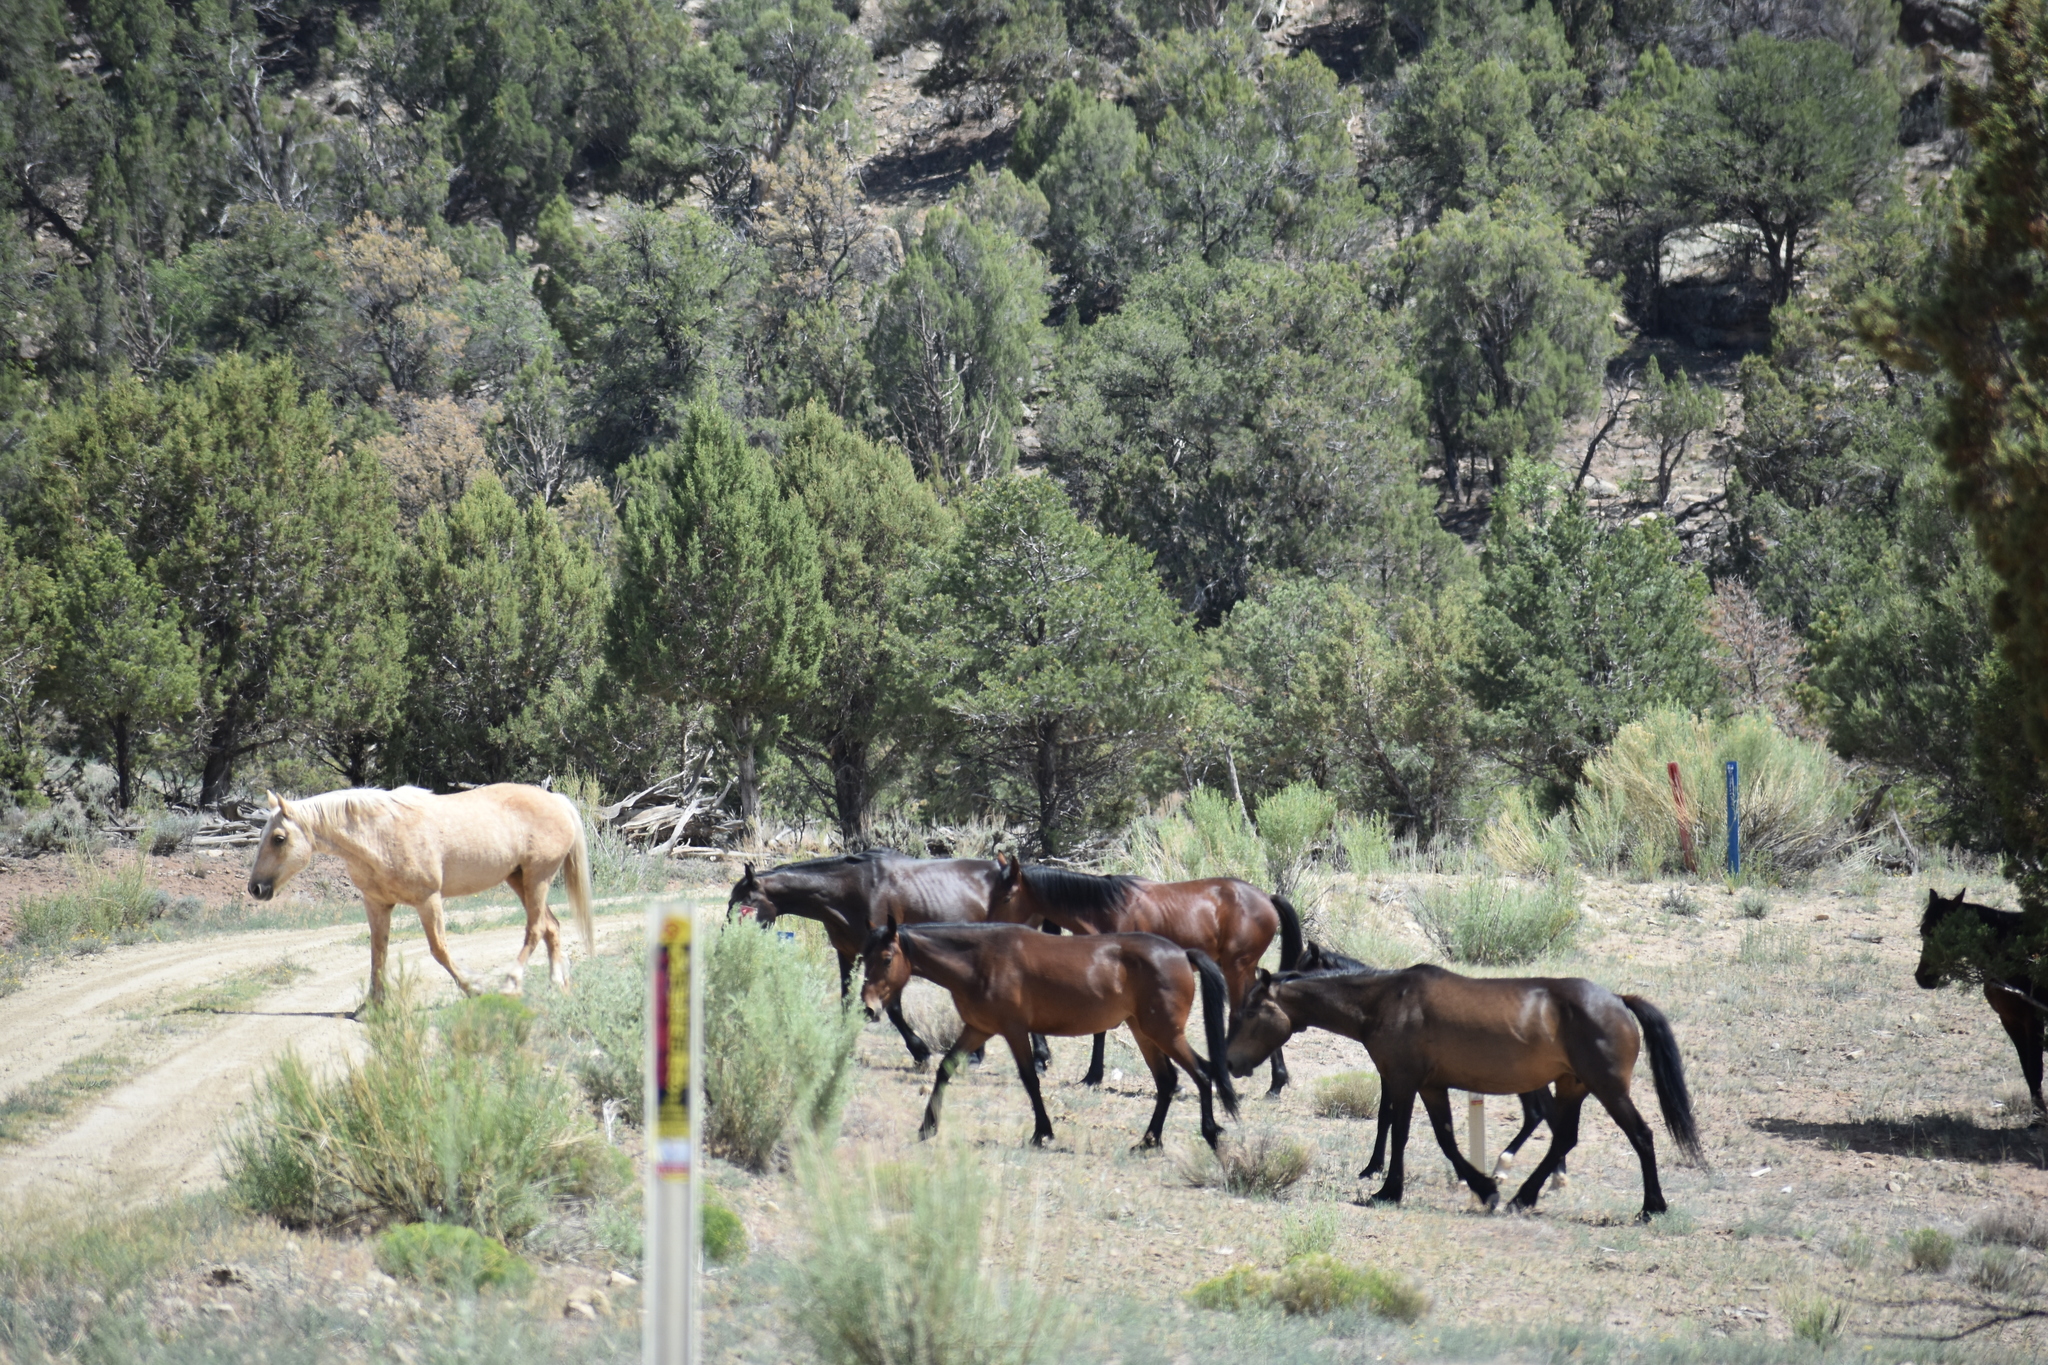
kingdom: Animalia
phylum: Chordata
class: Mammalia
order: Perissodactyla
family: Equidae
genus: Equus
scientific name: Equus caballus
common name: Horse
